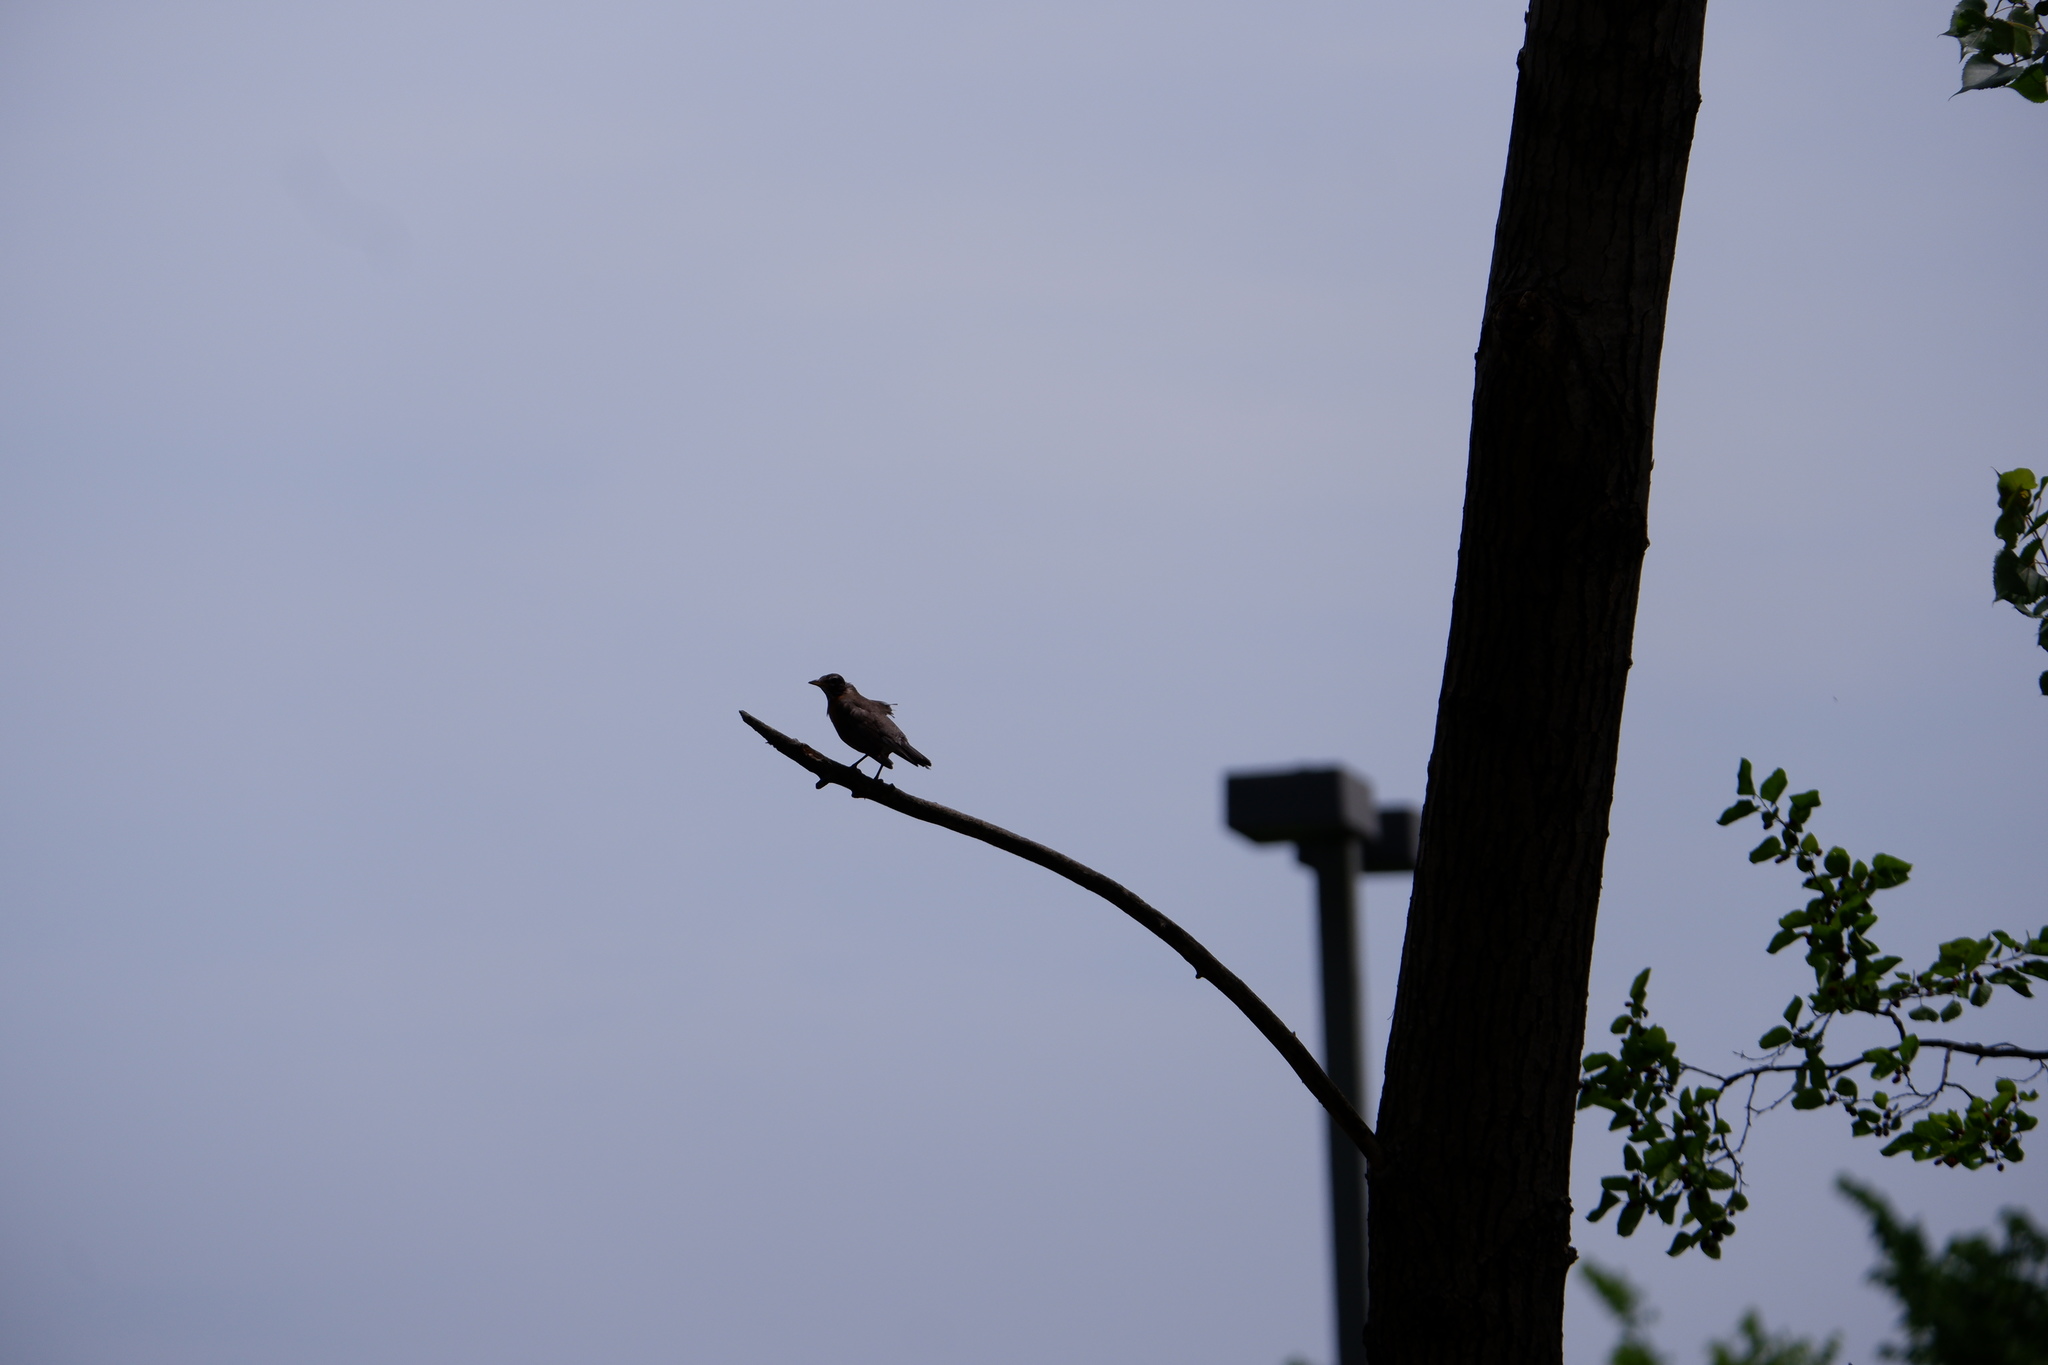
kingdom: Animalia
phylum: Chordata
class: Aves
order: Passeriformes
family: Turdidae
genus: Turdus
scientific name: Turdus migratorius
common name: American robin
